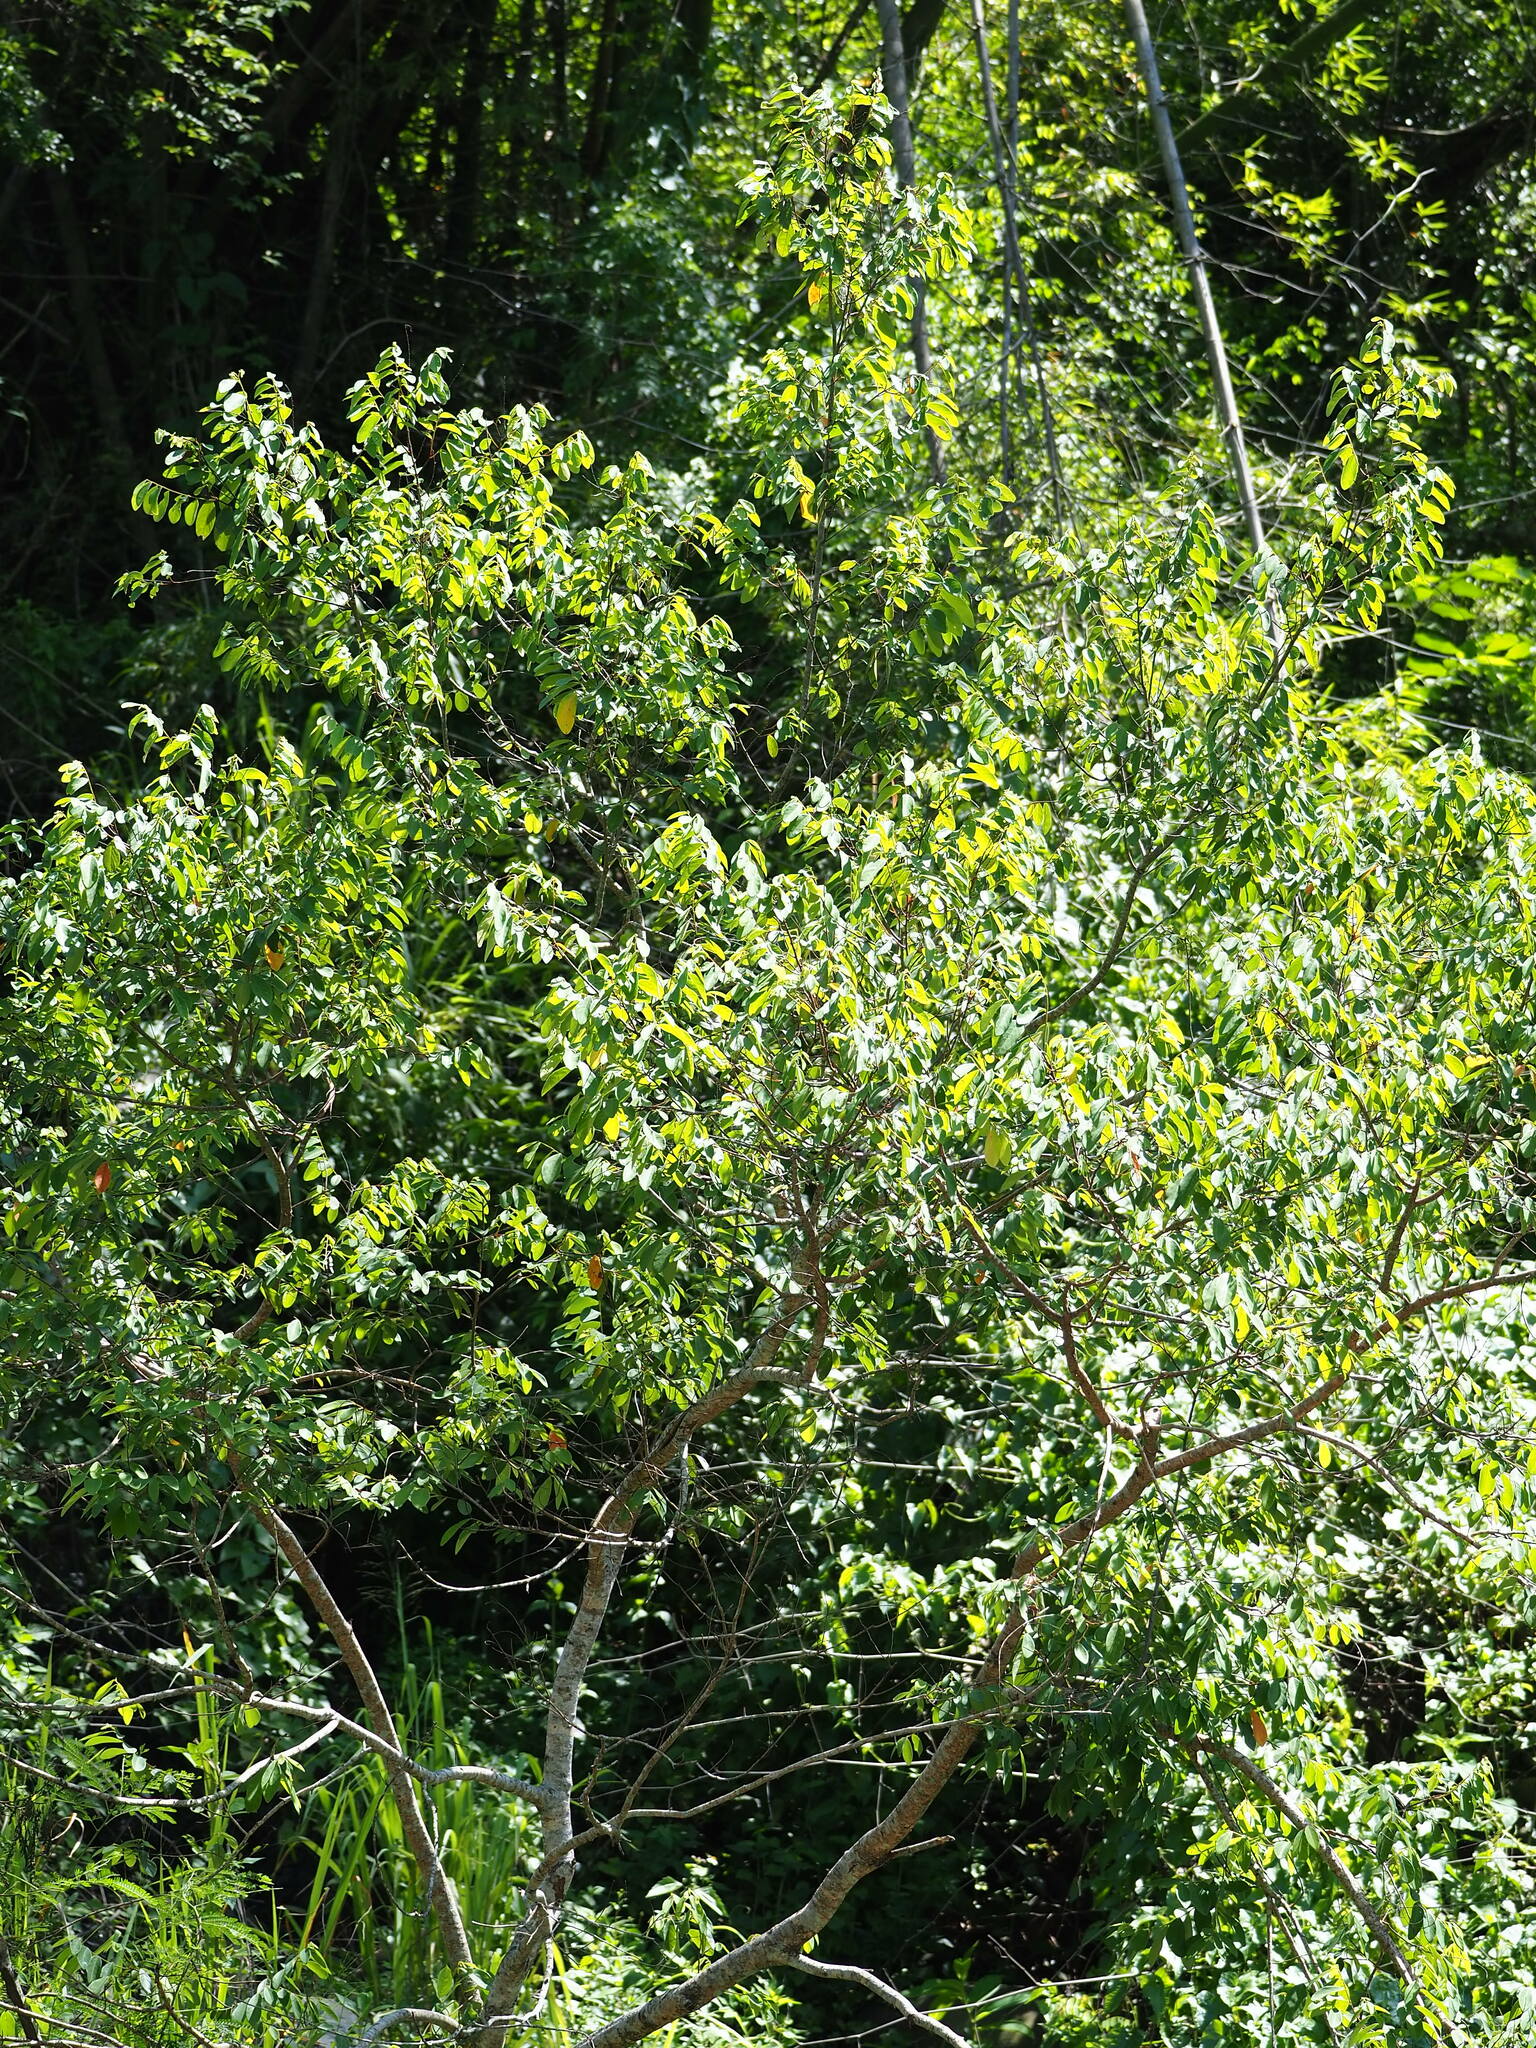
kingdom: Plantae
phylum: Tracheophyta
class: Magnoliopsida
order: Malpighiales
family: Phyllanthaceae
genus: Bridelia
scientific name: Bridelia tomentosa
